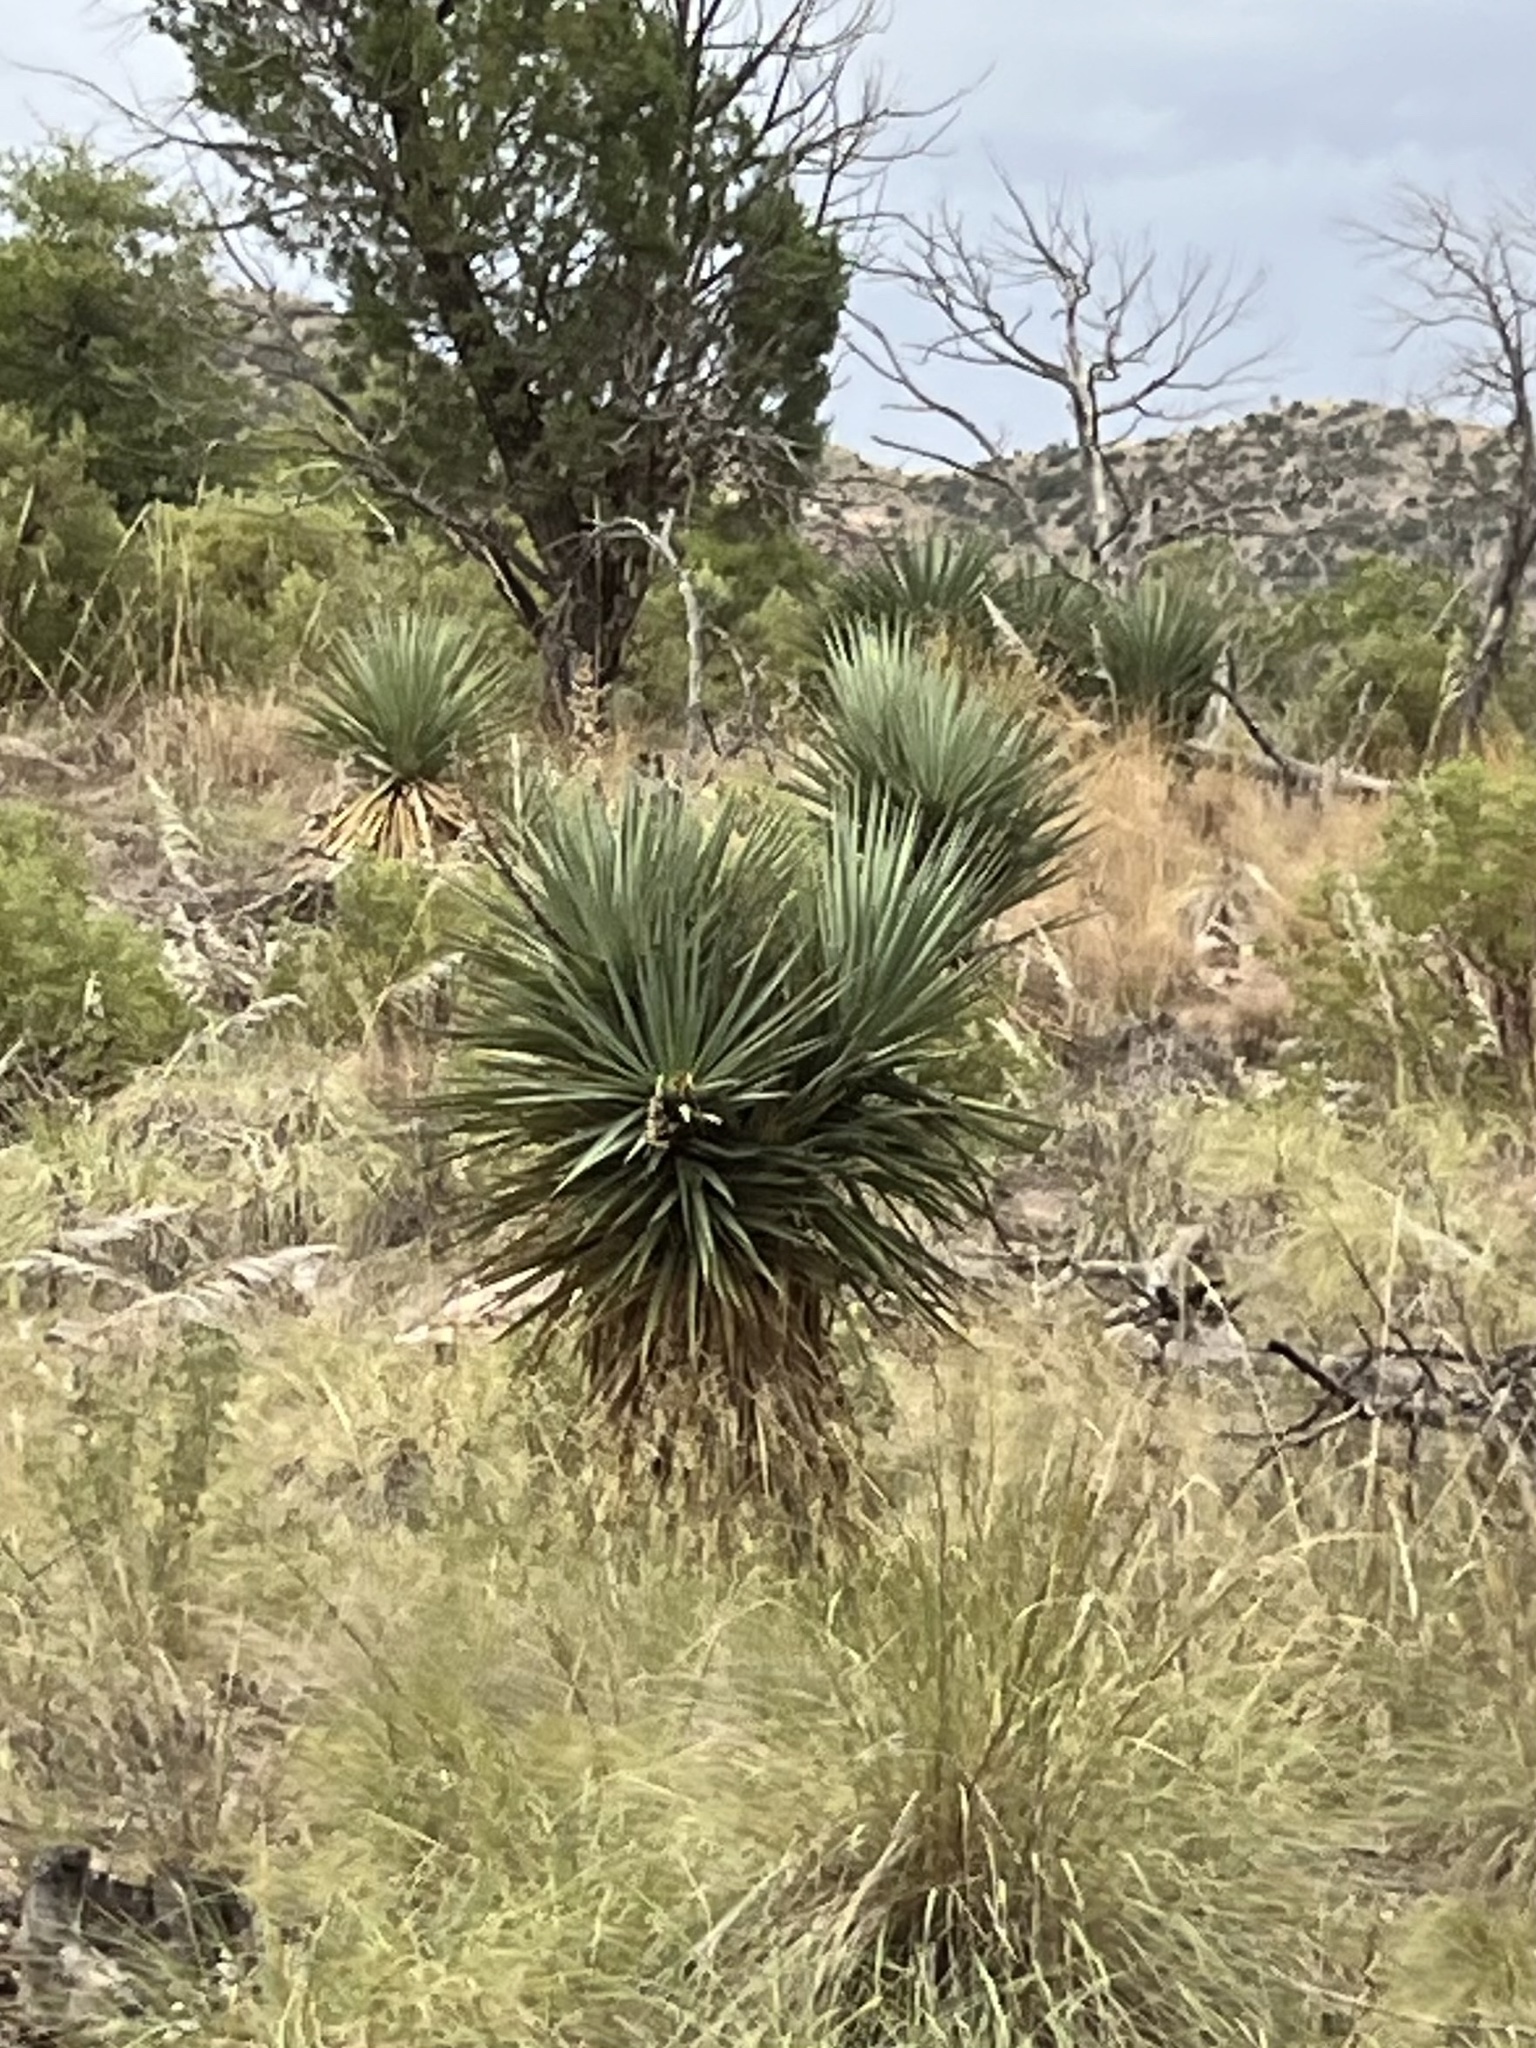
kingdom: Plantae
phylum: Tracheophyta
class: Liliopsida
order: Asparagales
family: Asparagaceae
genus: Yucca
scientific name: Yucca schottii
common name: Hoary yucca
